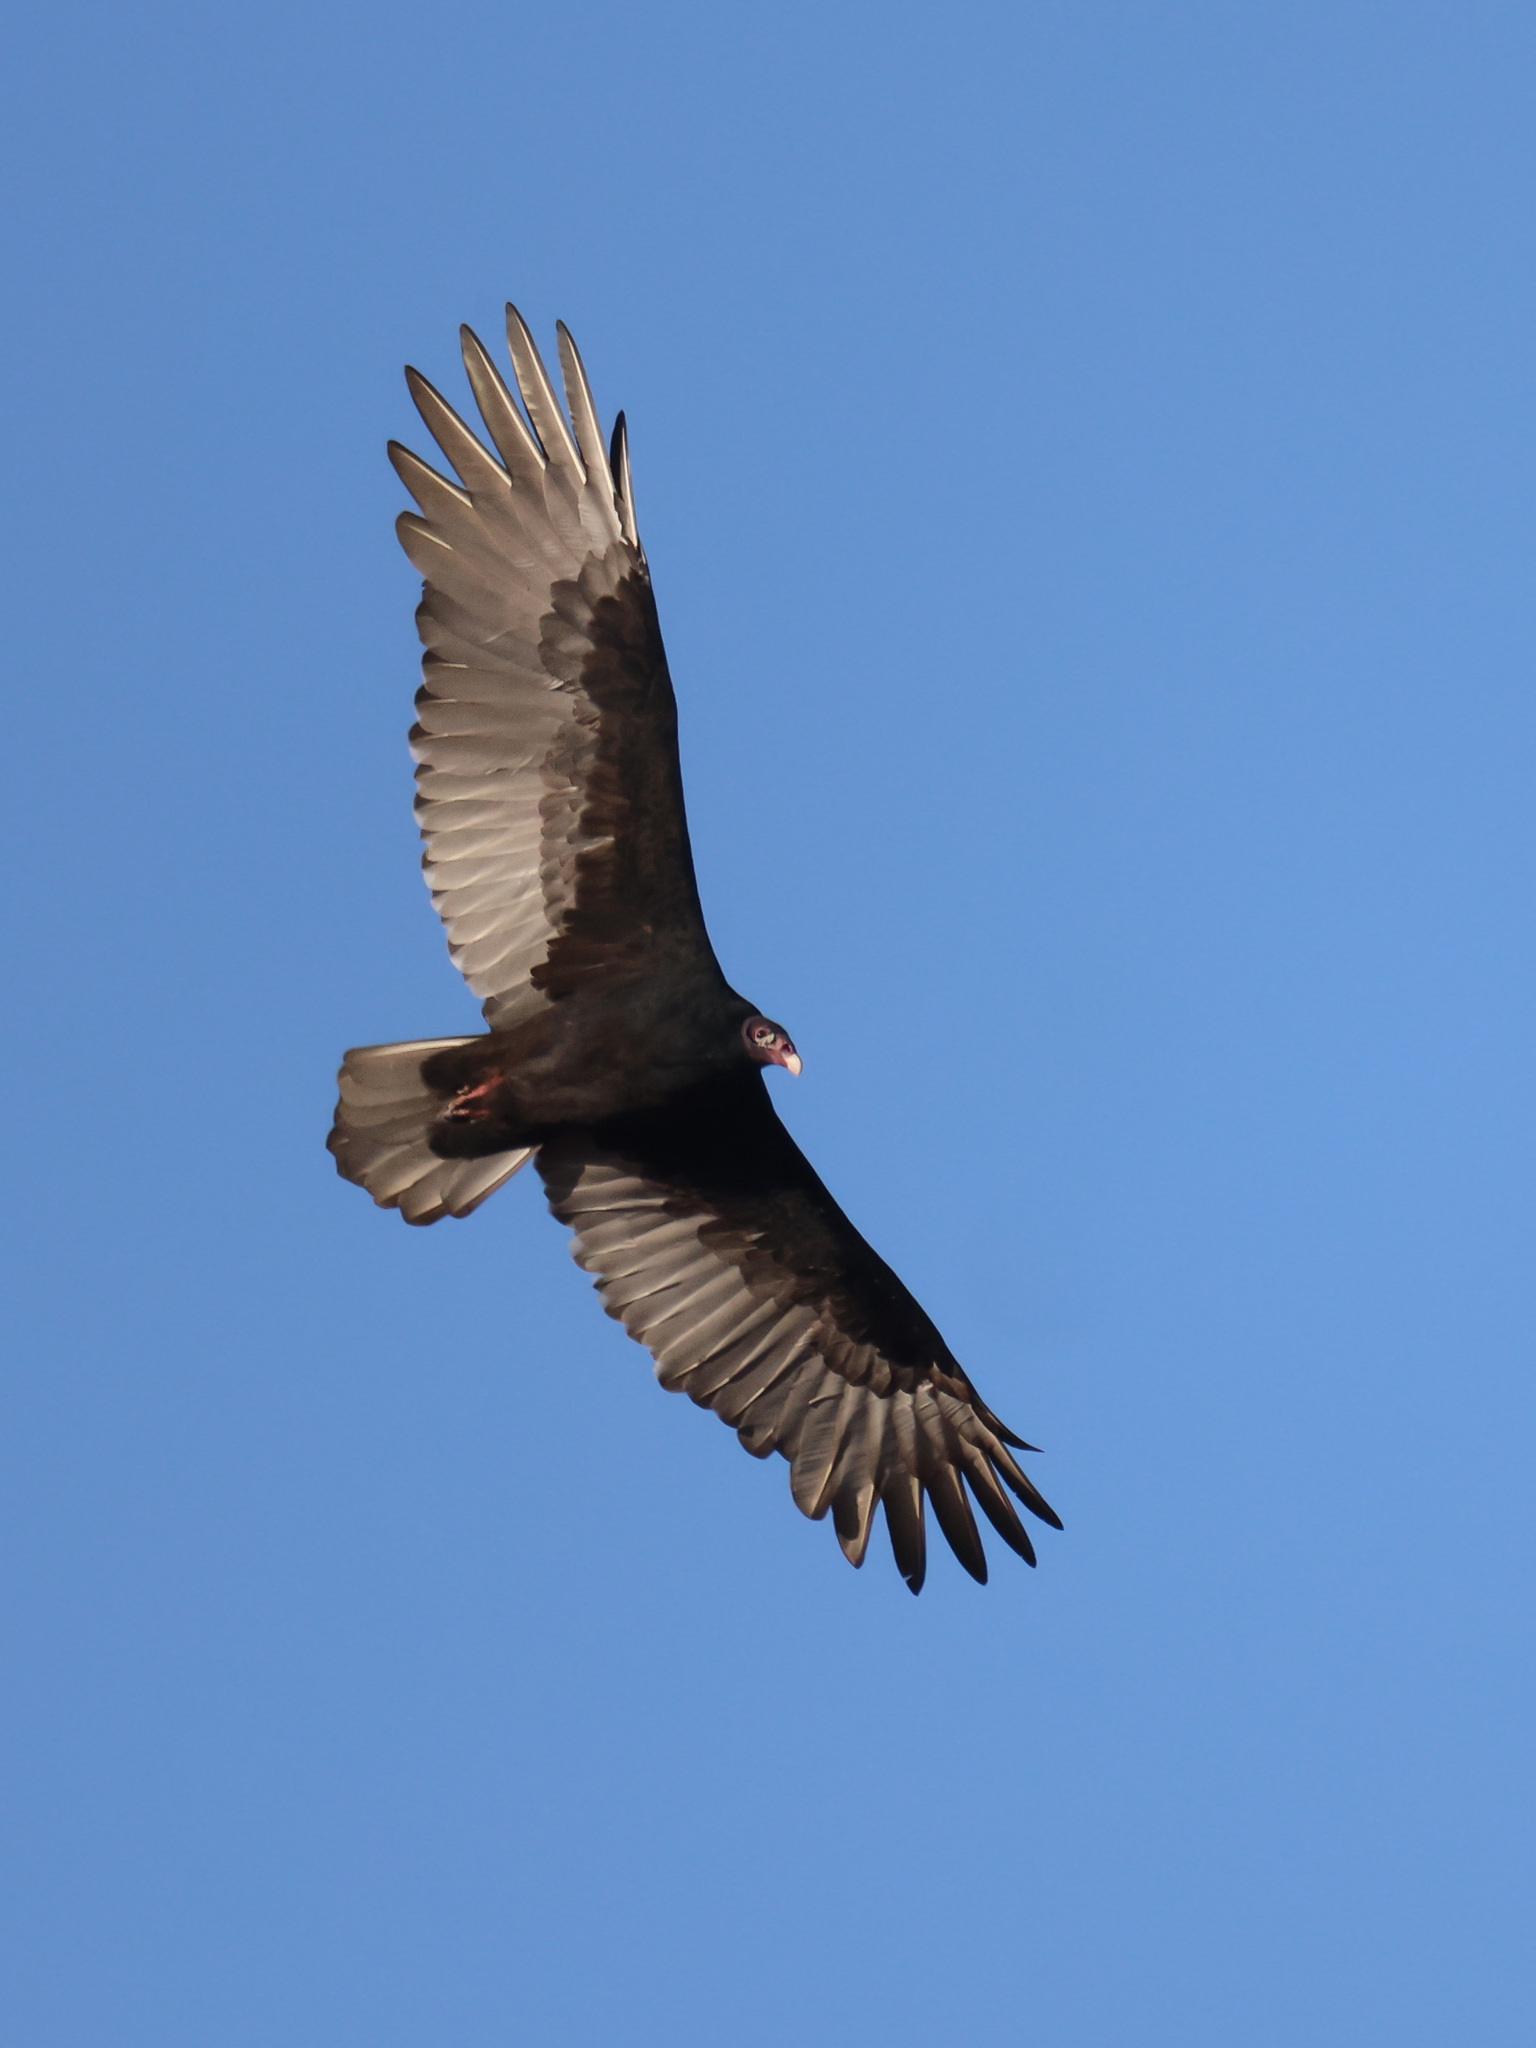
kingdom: Animalia
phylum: Chordata
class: Aves
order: Accipitriformes
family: Cathartidae
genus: Cathartes
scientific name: Cathartes aura
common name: Turkey vulture
